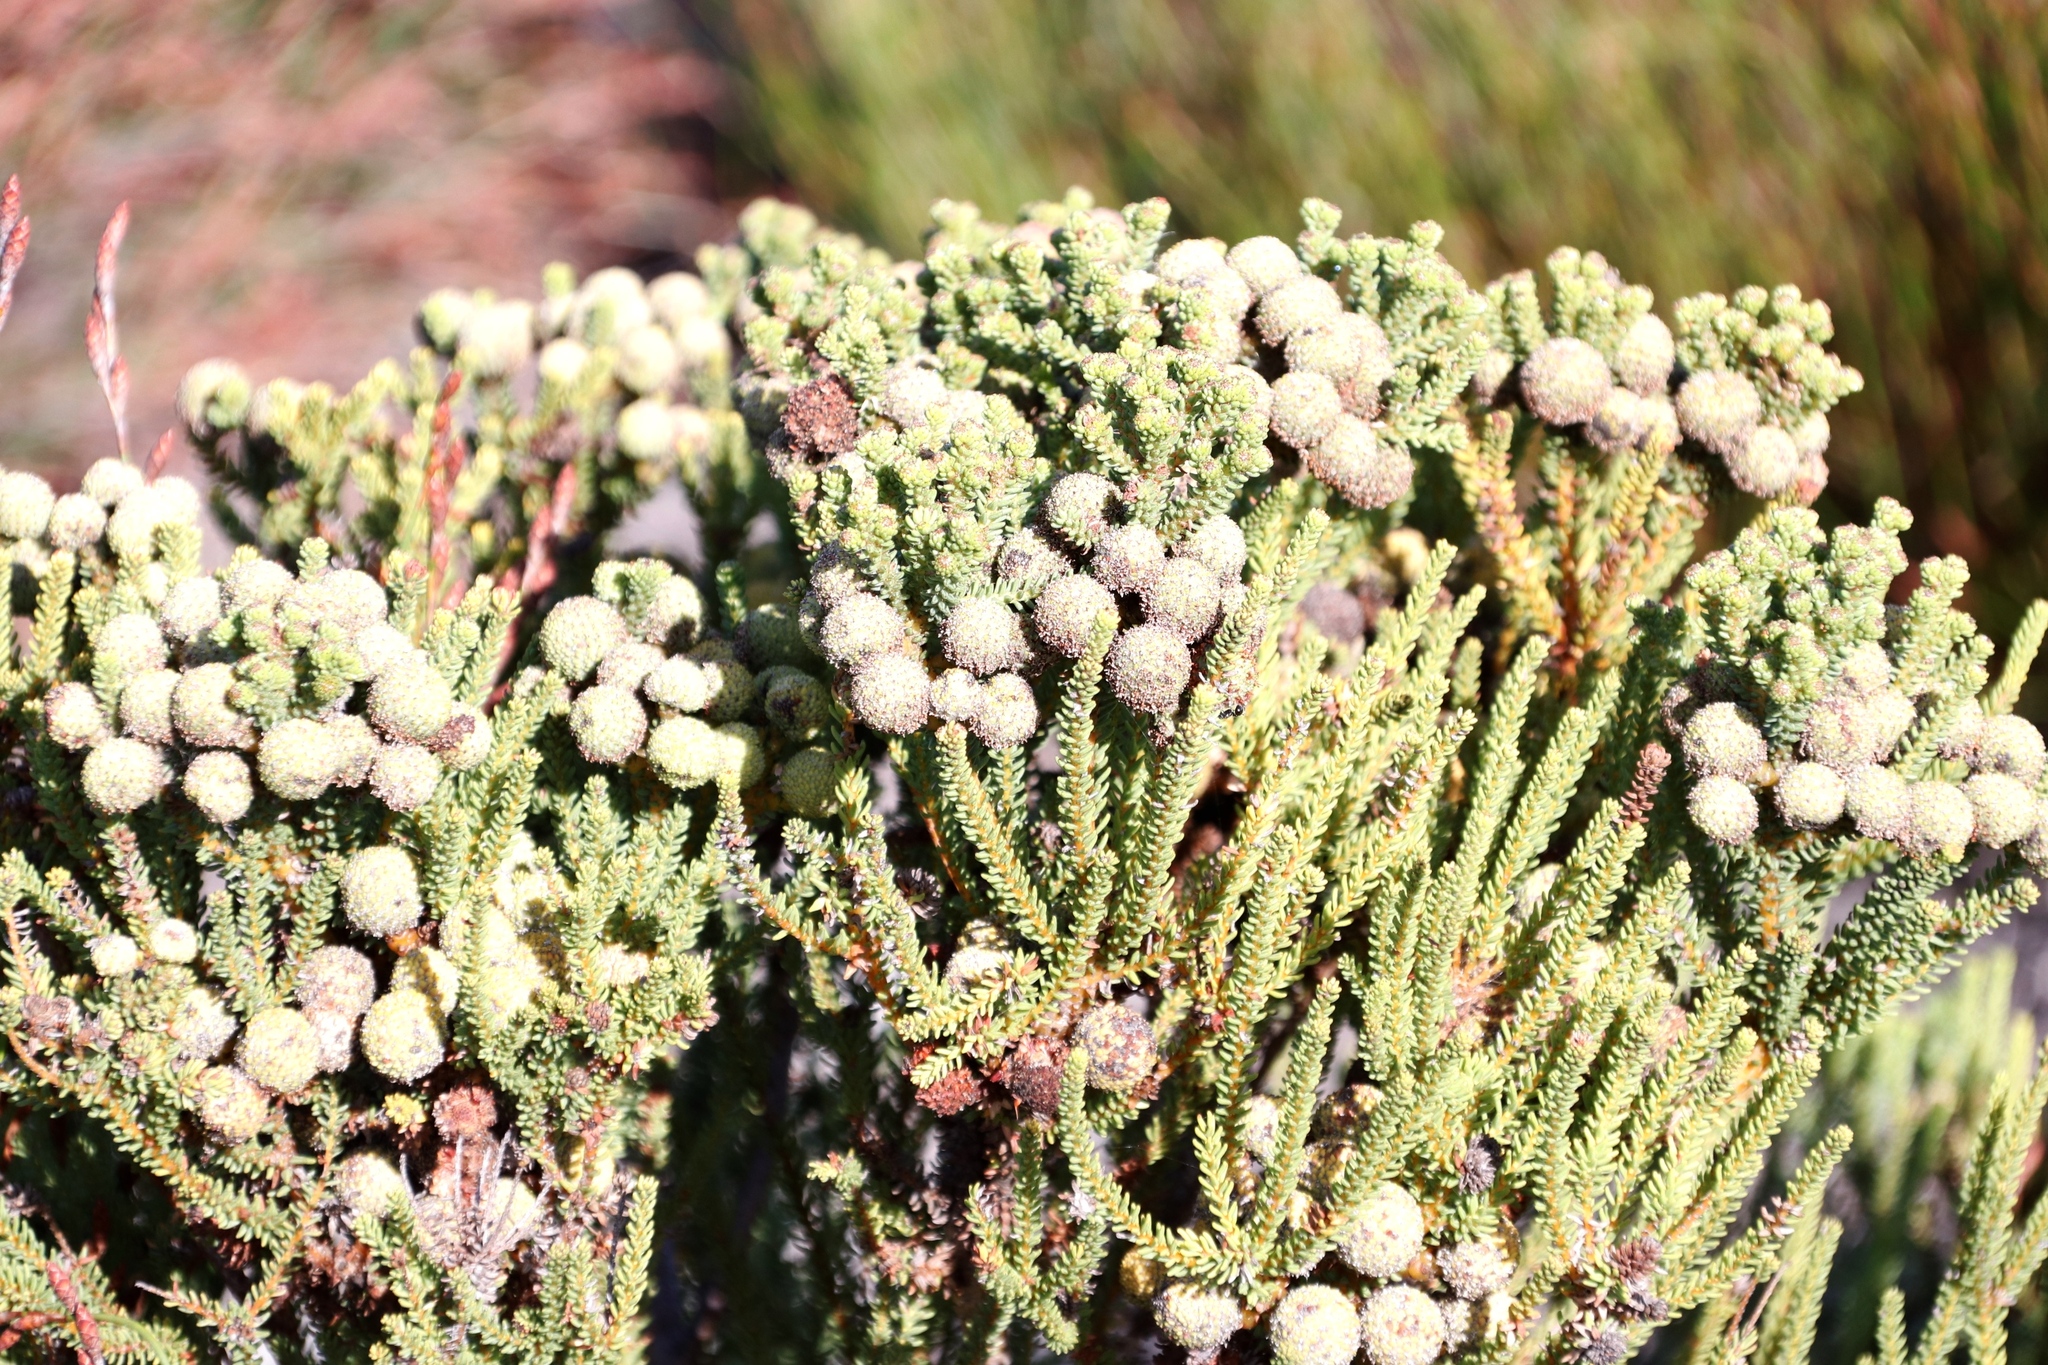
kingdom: Plantae
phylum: Tracheophyta
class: Magnoliopsida
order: Bruniales
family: Bruniaceae
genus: Berzelia
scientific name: Berzelia abrotanoides
